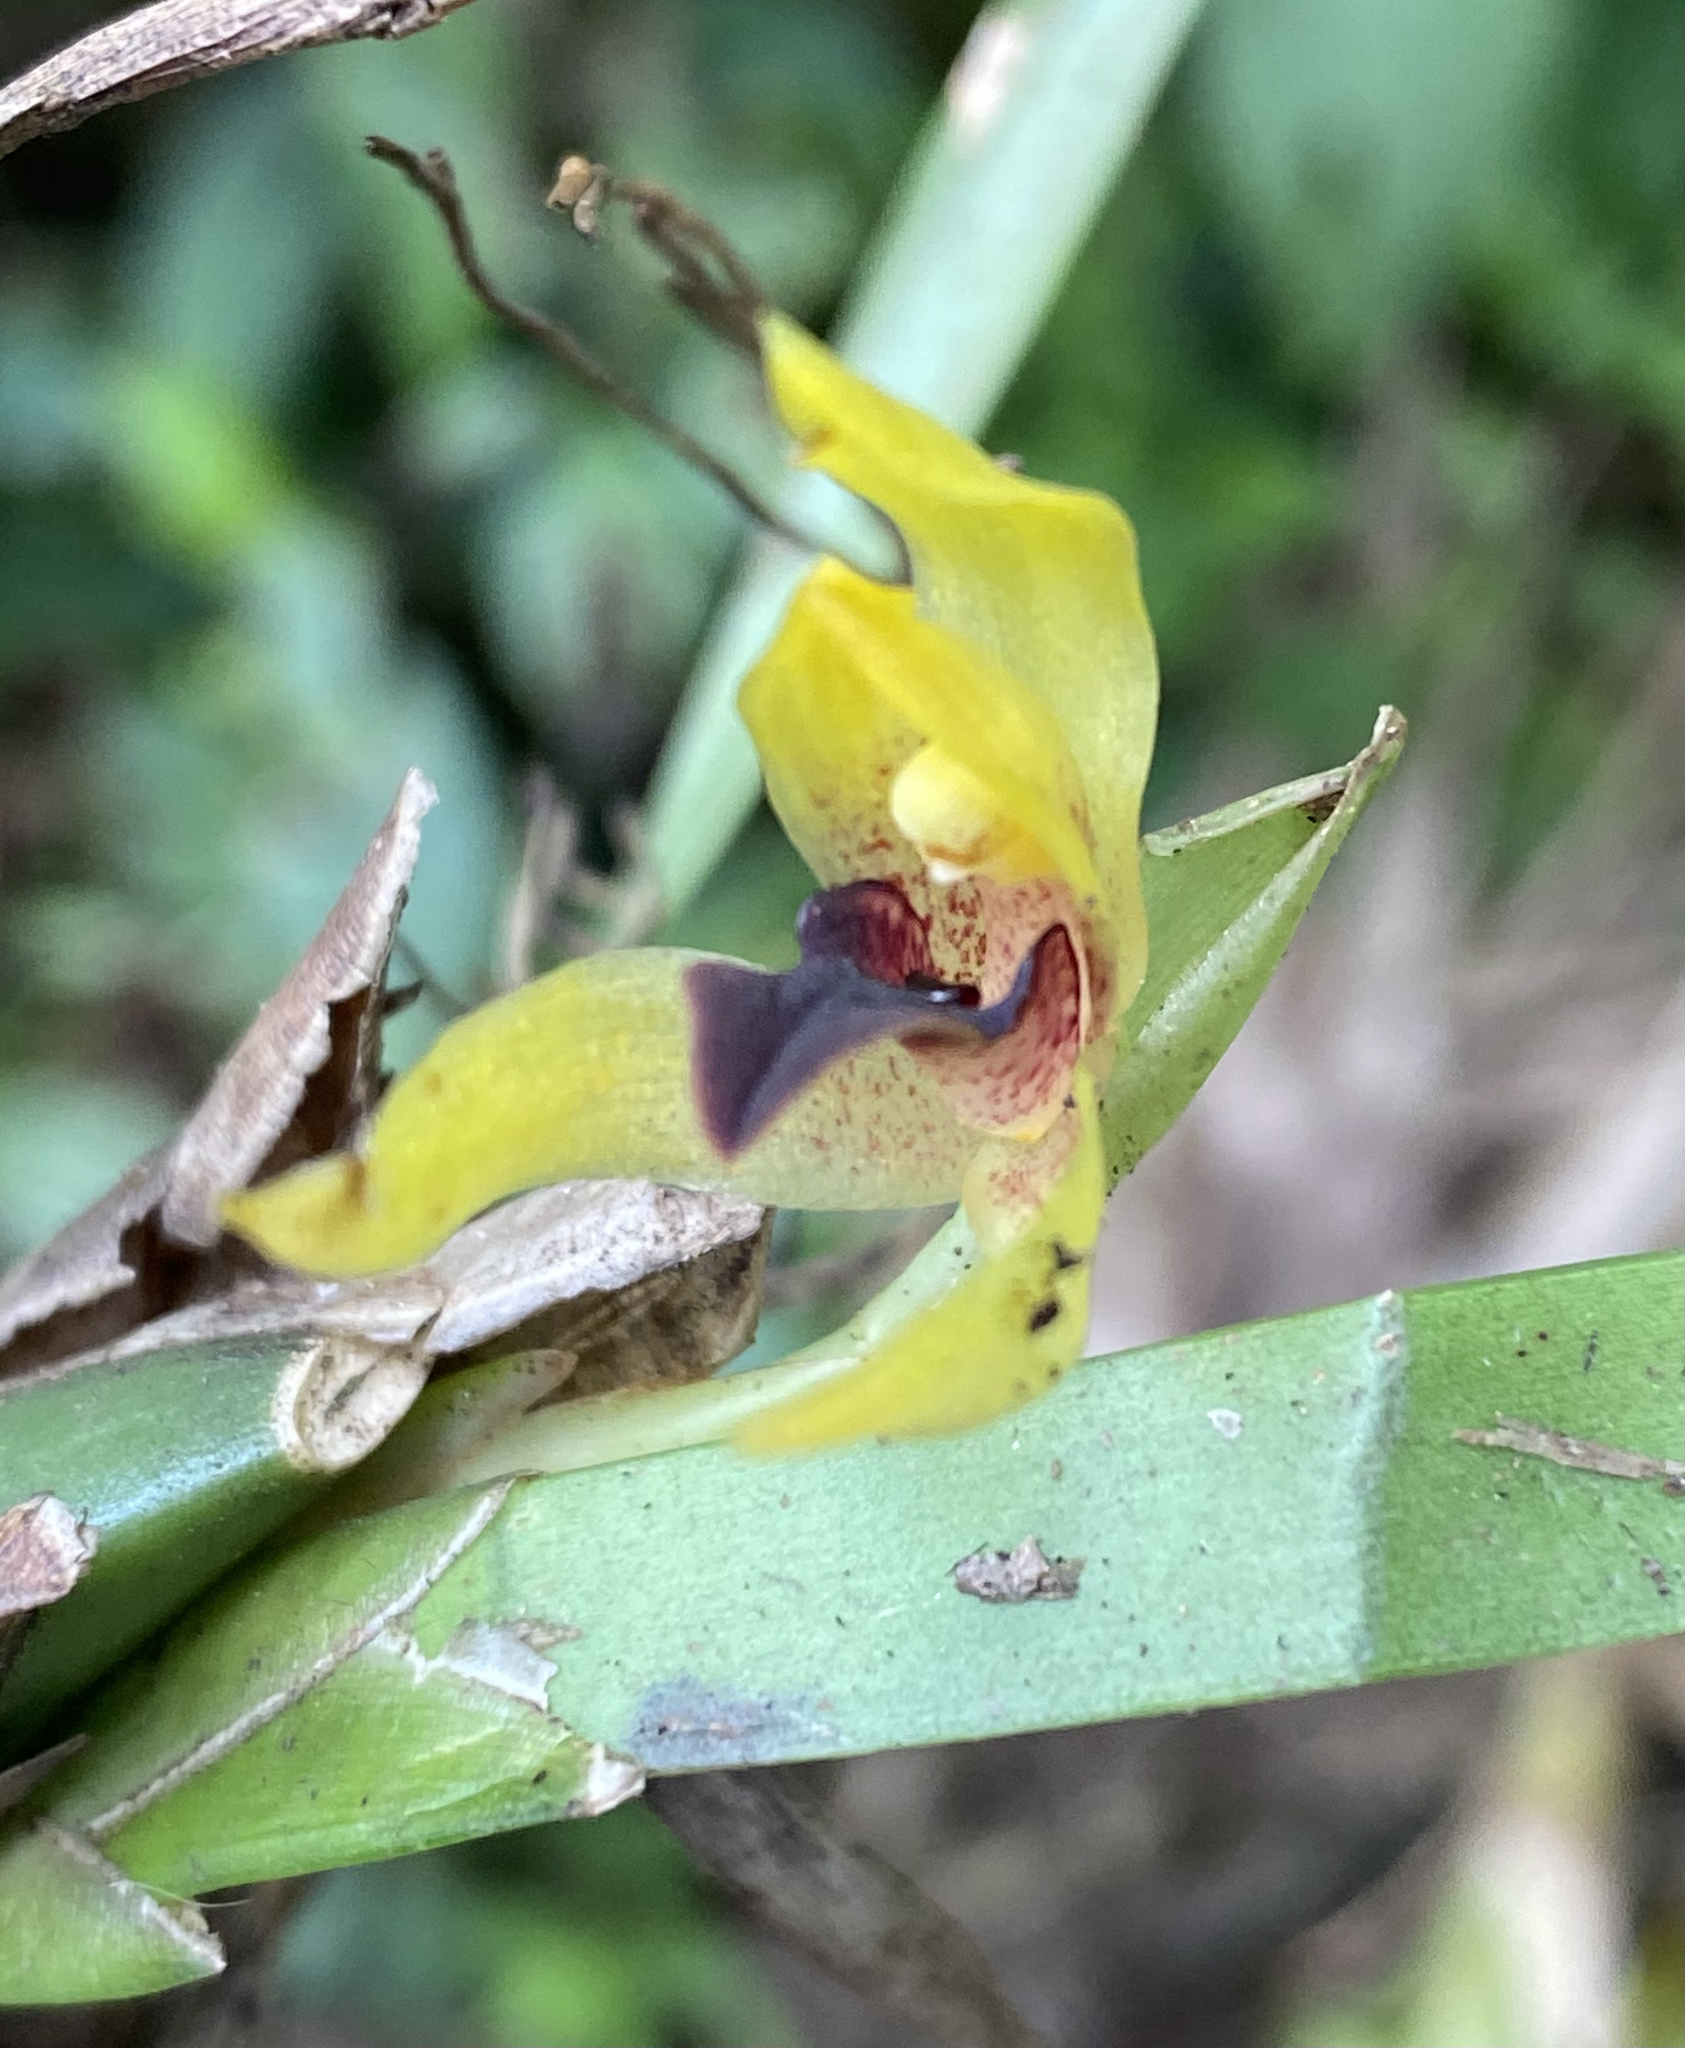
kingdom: Plantae
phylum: Tracheophyta
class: Liliopsida
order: Asparagales
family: Orchidaceae
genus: Maxillaria
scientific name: Maxillaria cucullata
